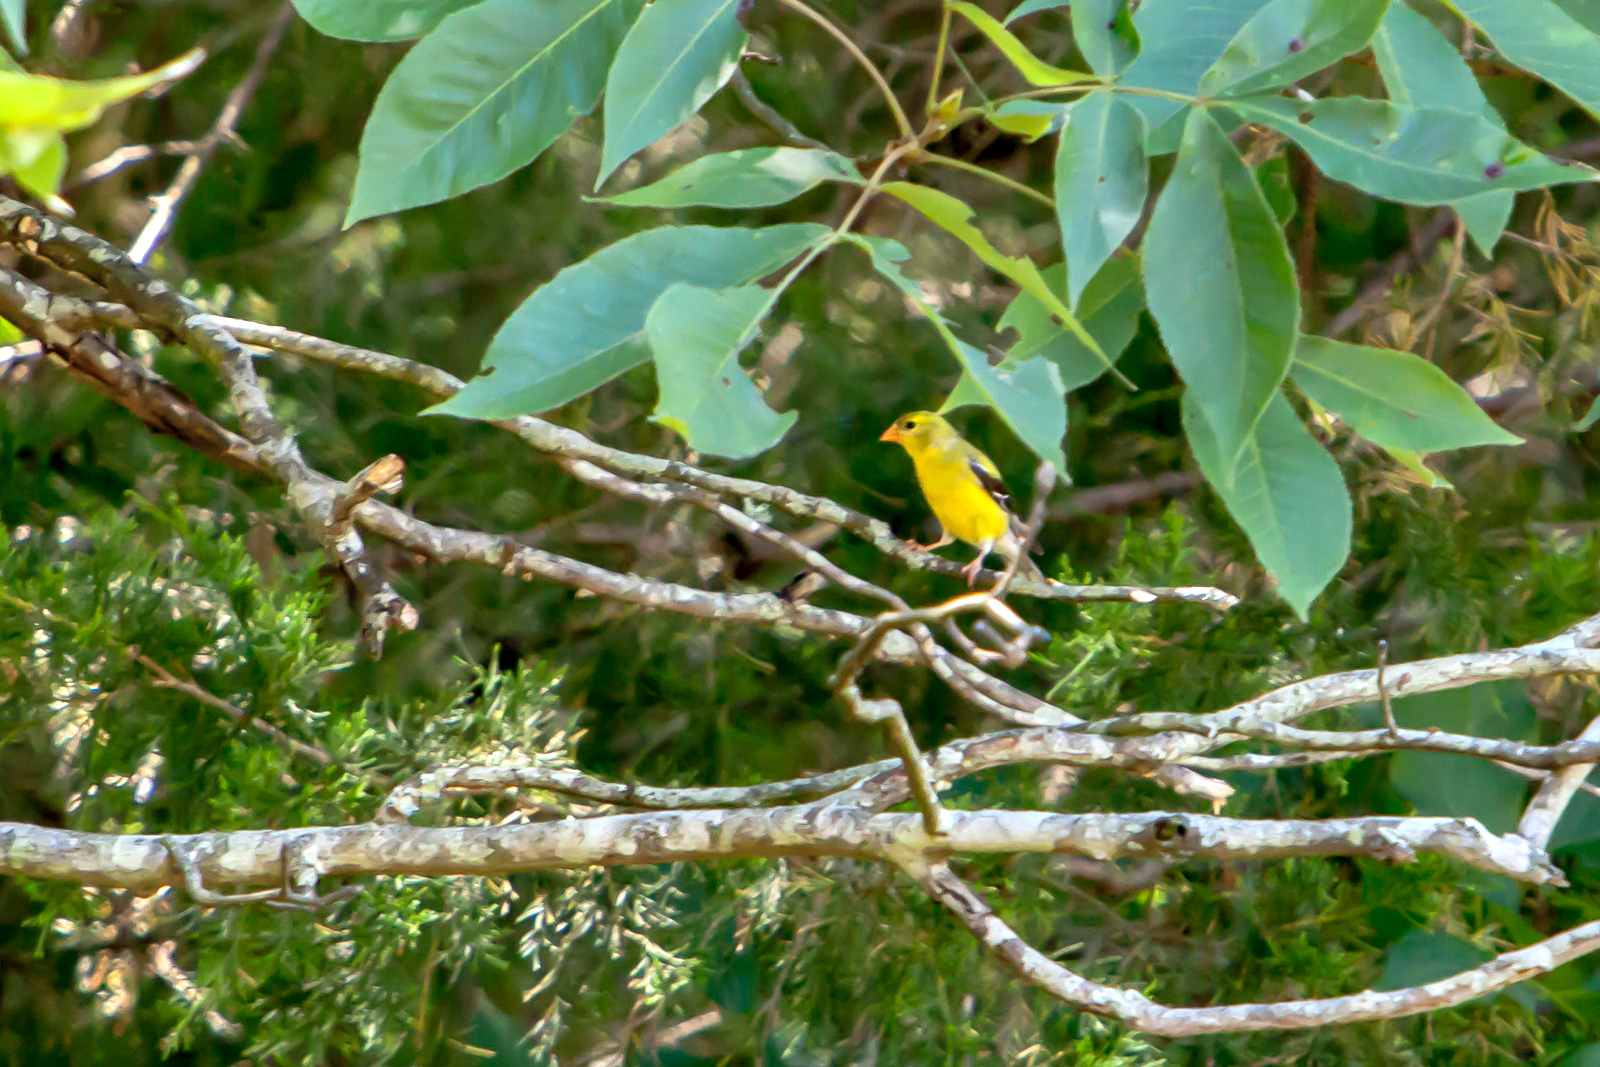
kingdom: Animalia
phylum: Chordata
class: Aves
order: Passeriformes
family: Fringillidae
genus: Spinus
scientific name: Spinus tristis
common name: American goldfinch
